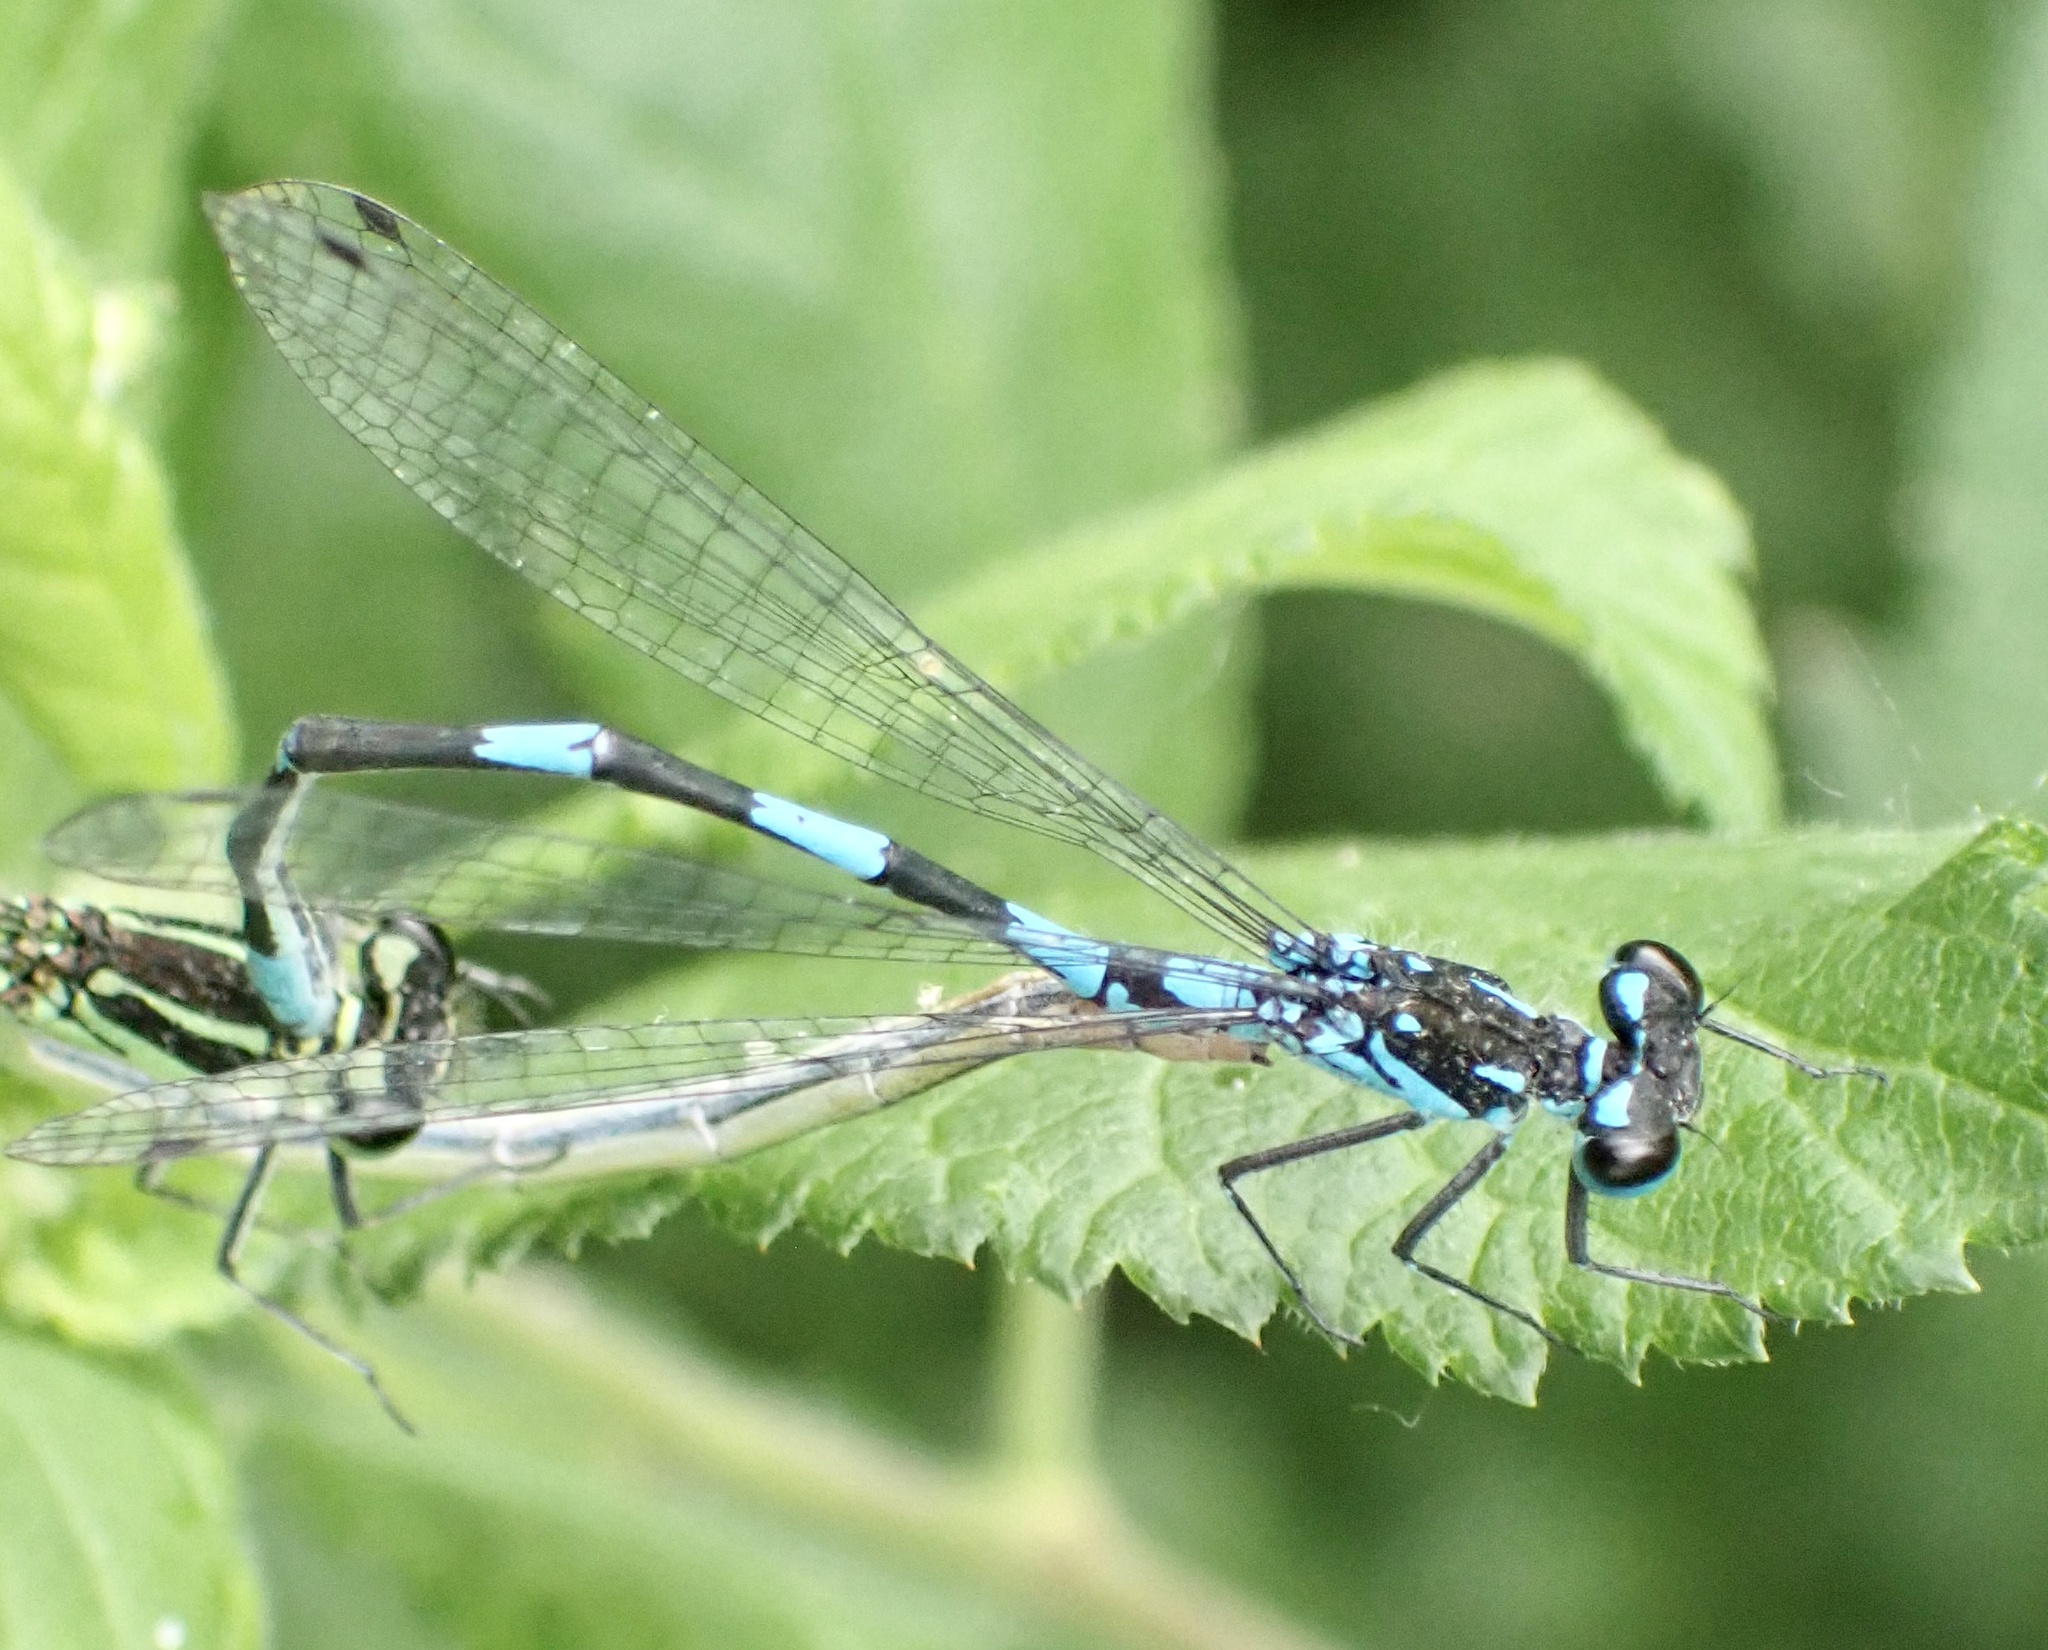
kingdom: Animalia
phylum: Arthropoda
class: Insecta
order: Odonata
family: Coenagrionidae
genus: Coenagrion
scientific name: Coenagrion pulchellum
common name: Variable bluet
